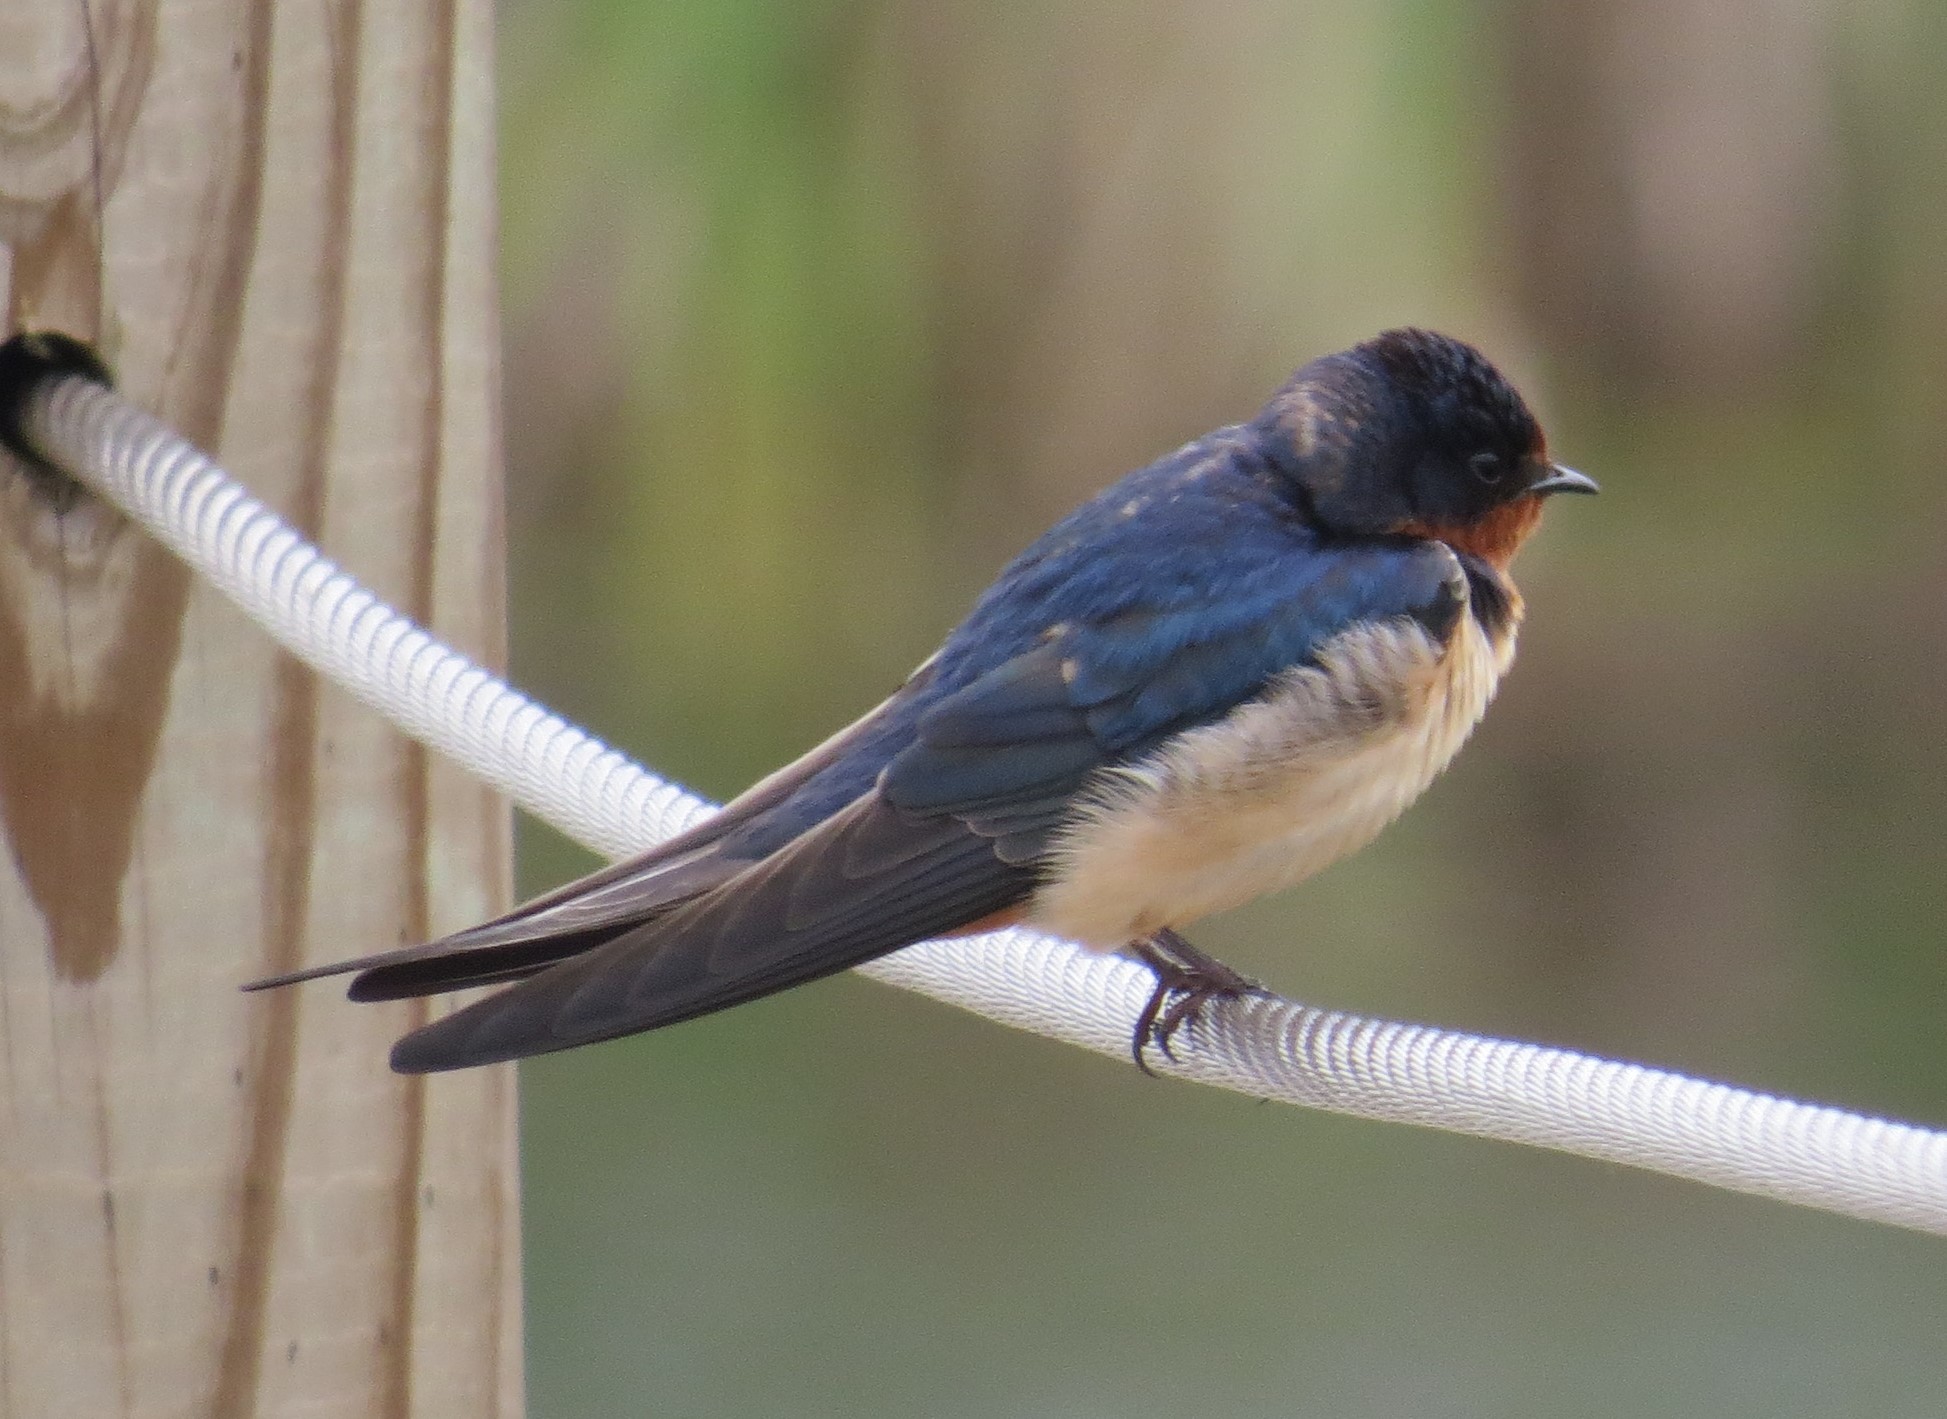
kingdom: Animalia
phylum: Chordata
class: Aves
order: Passeriformes
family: Hirundinidae
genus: Hirundo
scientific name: Hirundo rustica
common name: Barn swallow
